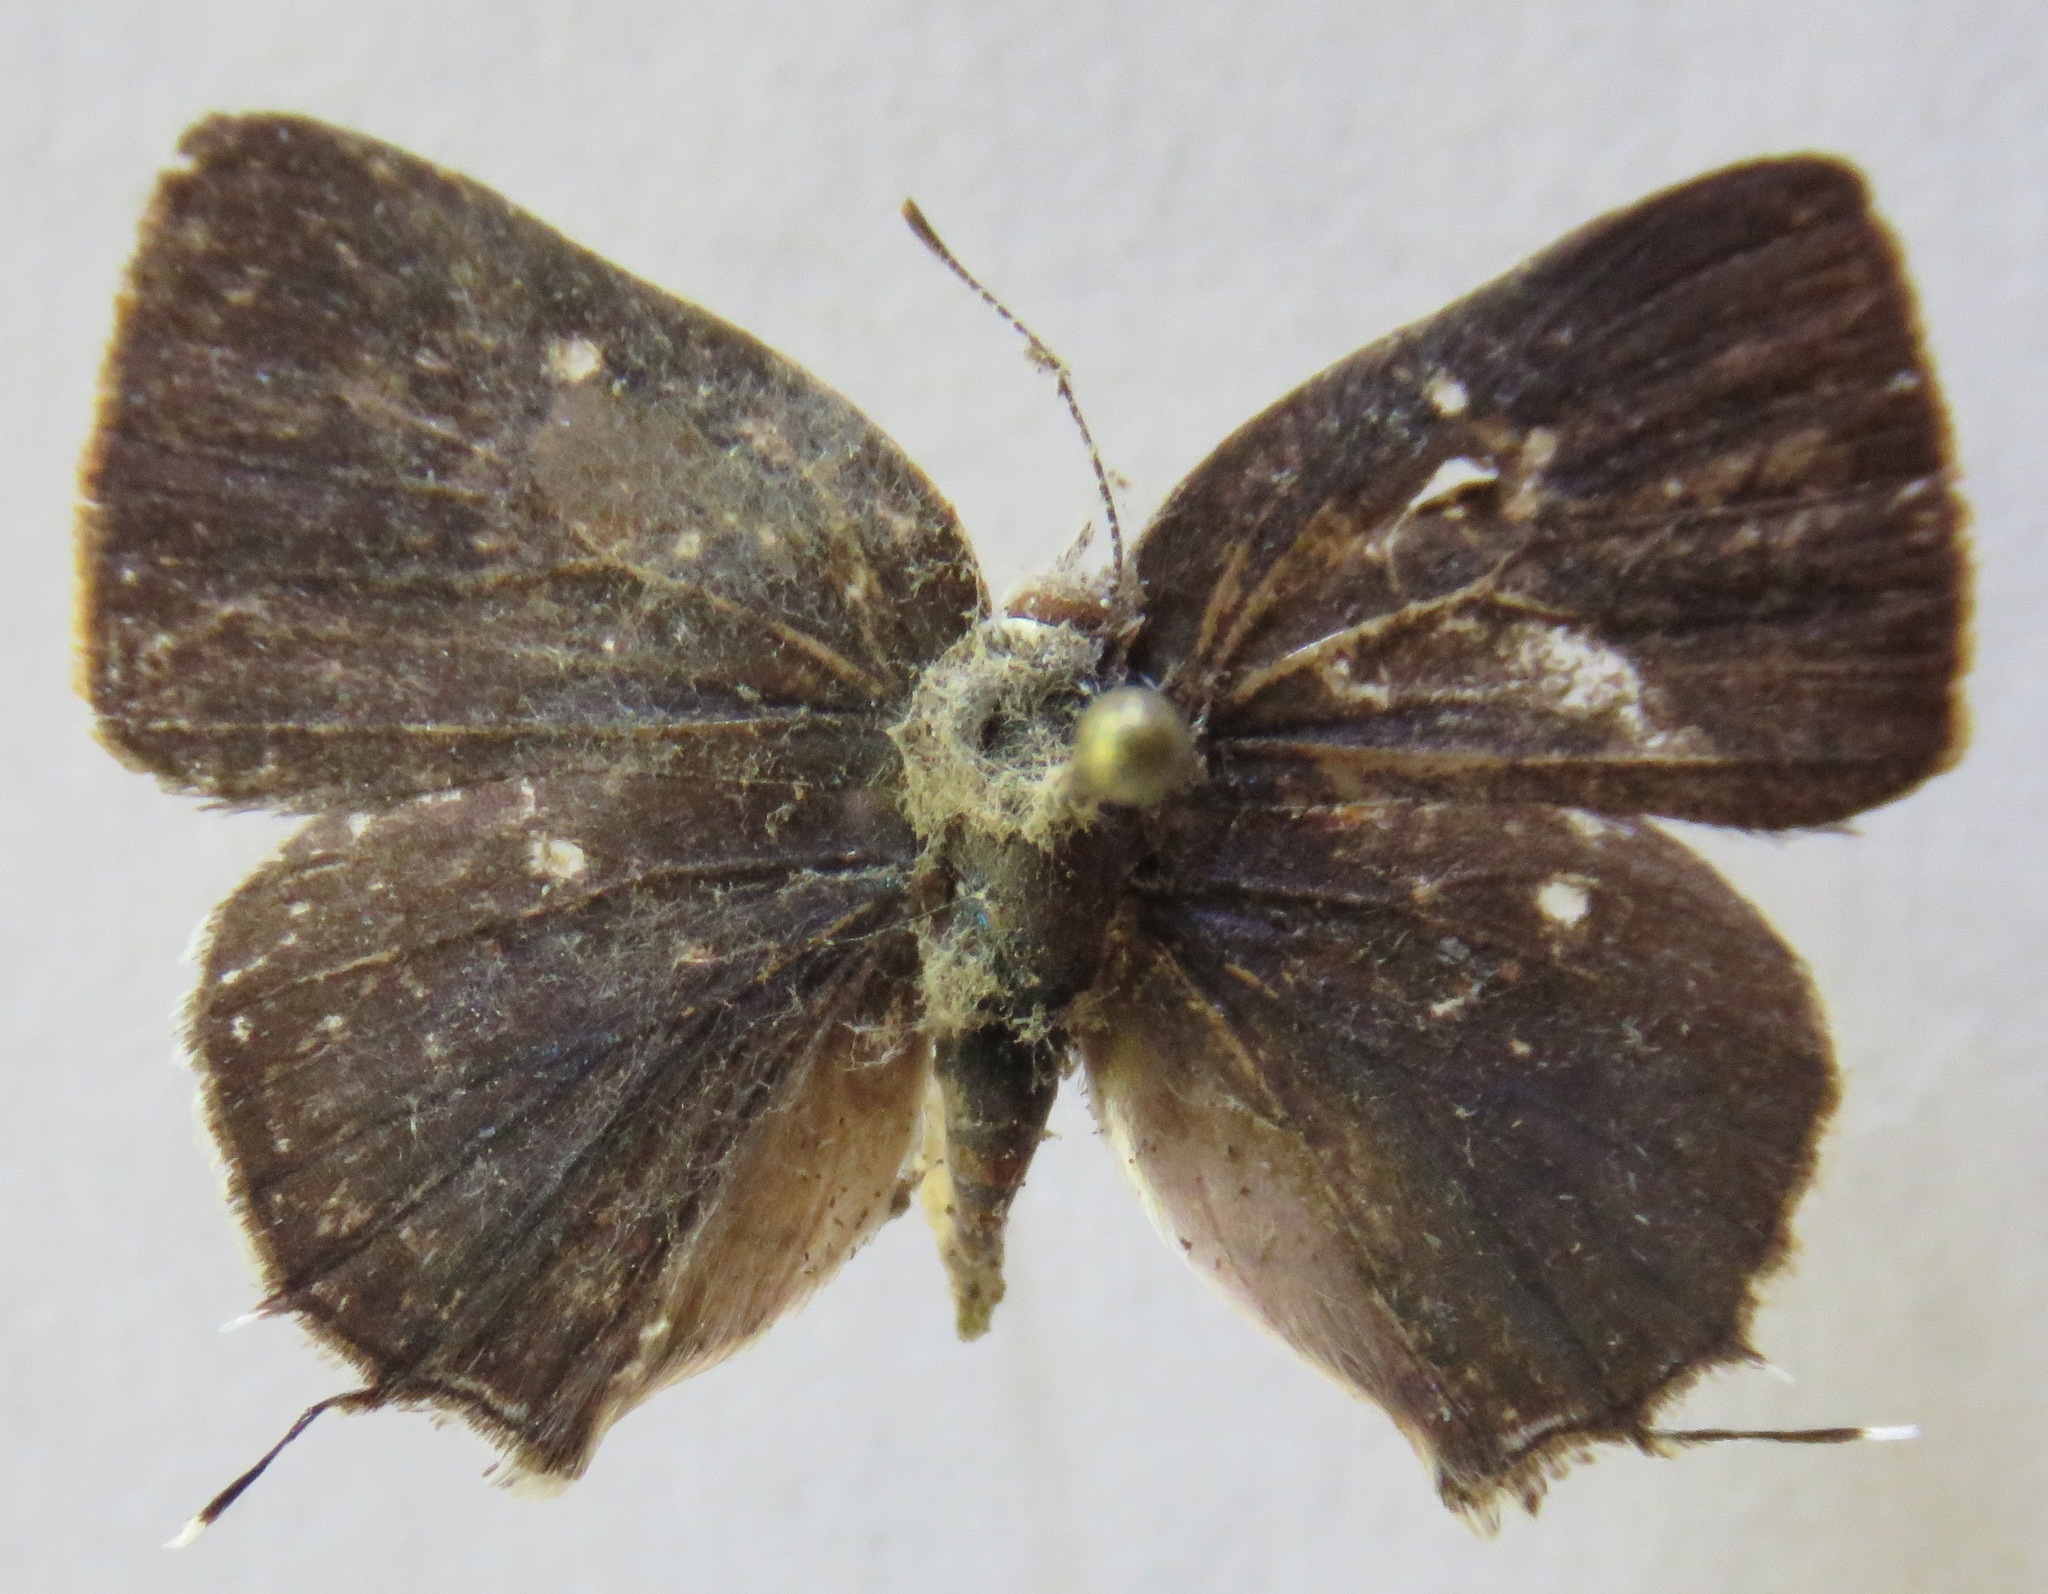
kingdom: Animalia
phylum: Arthropoda
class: Insecta
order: Lepidoptera
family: Lycaenidae
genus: Tmolus
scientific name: Tmolus echion
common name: Red-spotted hairstreak
